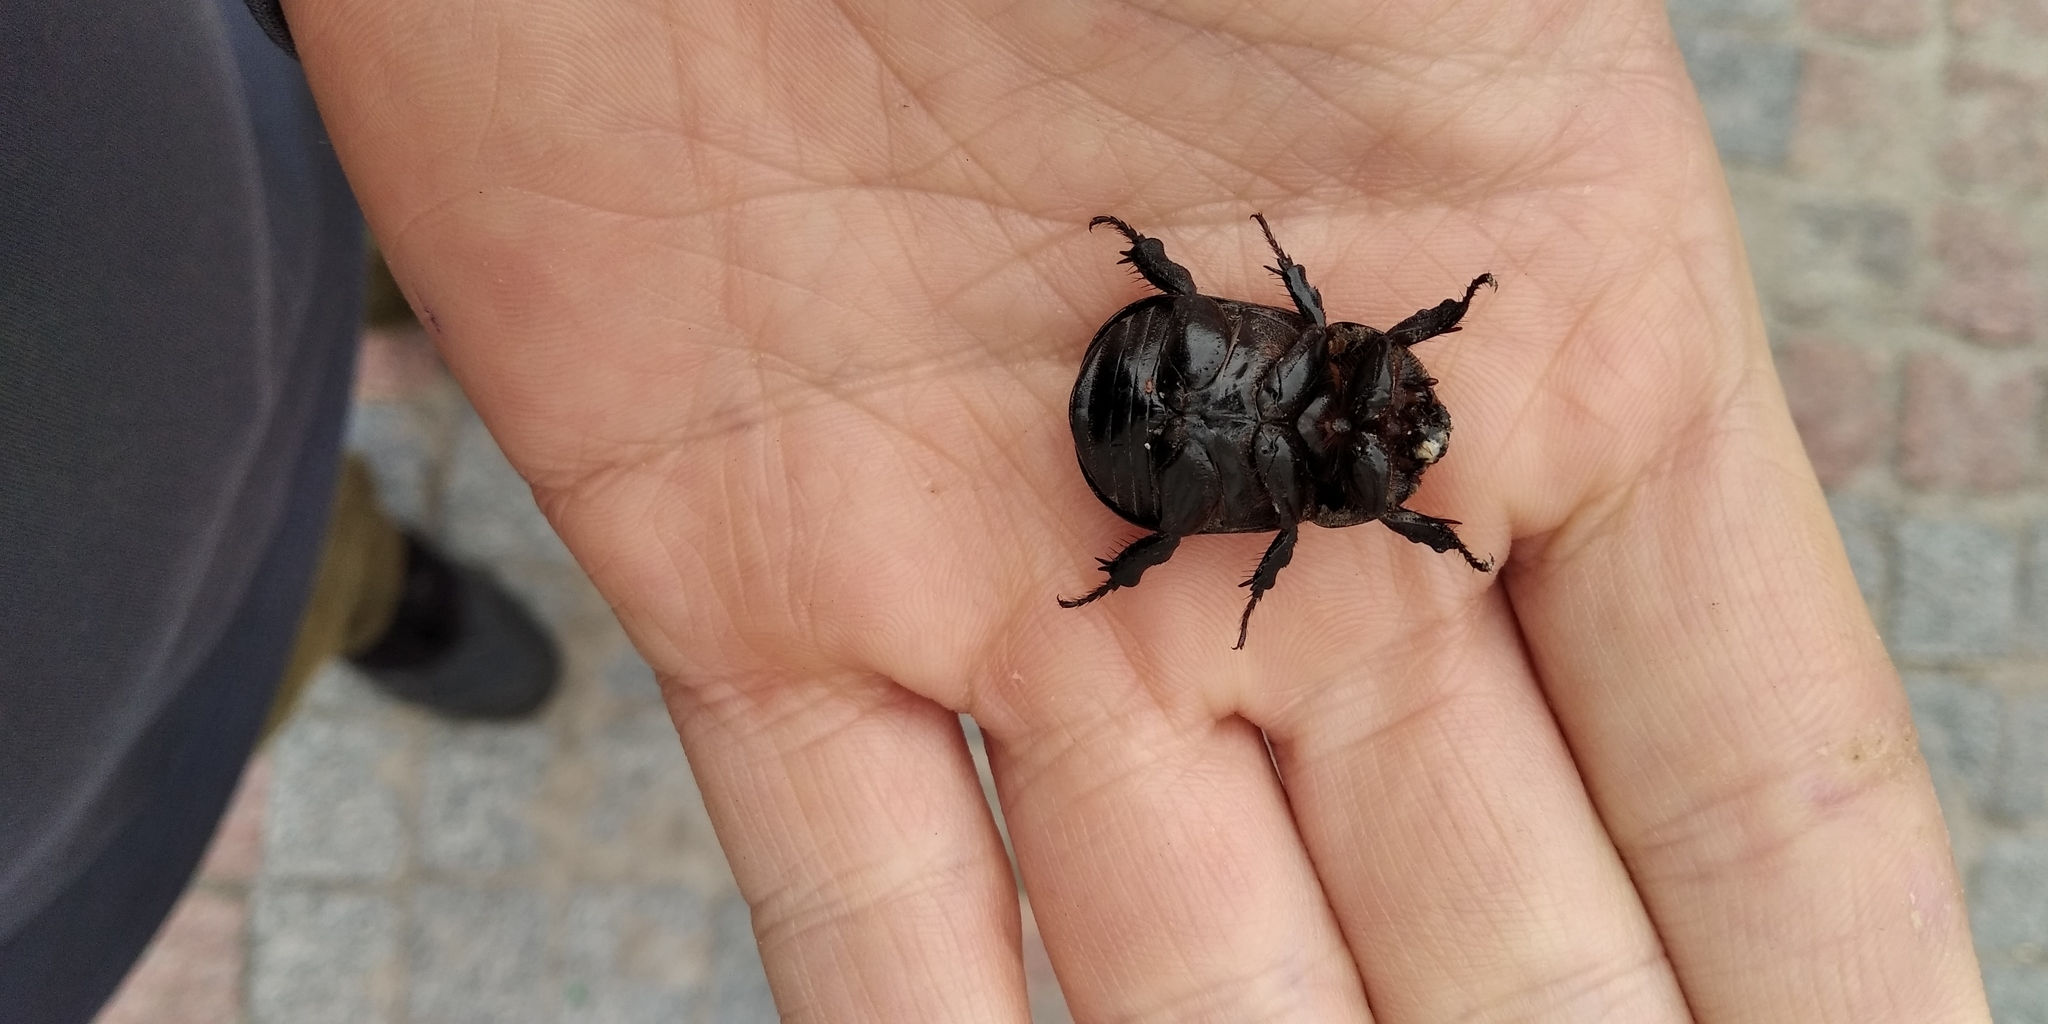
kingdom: Animalia
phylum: Arthropoda
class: Insecta
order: Coleoptera
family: Scarabaeidae
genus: Pentodon
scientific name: Pentodon idiota
